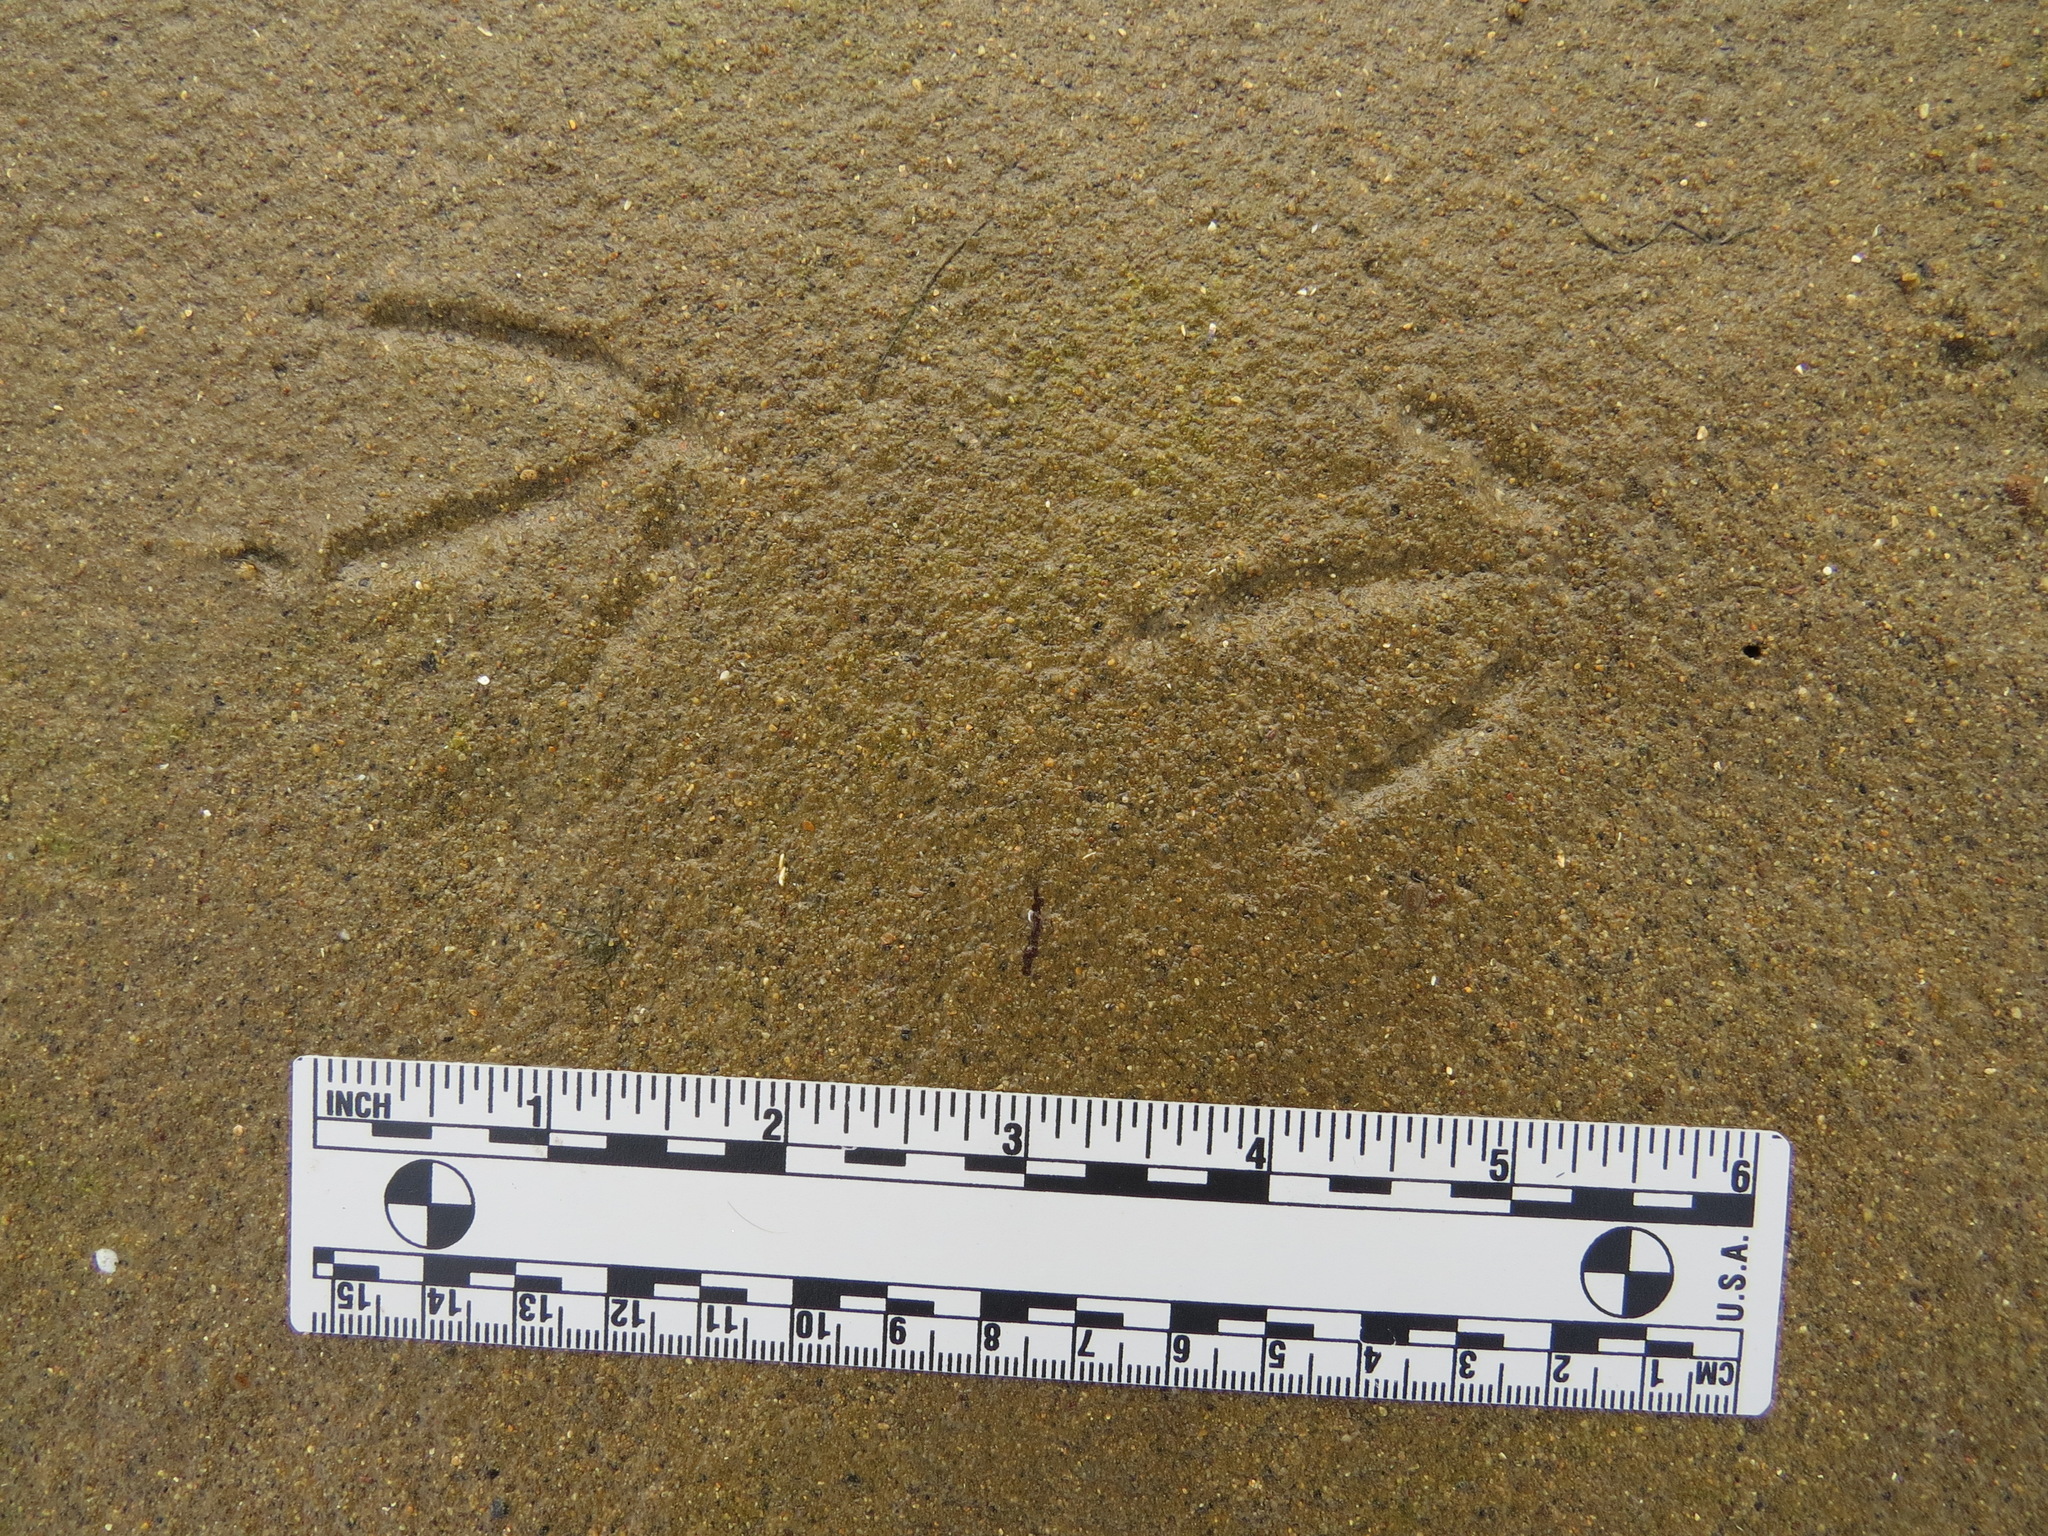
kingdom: Animalia
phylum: Chordata
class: Aves
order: Charadriiformes
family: Laridae
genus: Hydroprogne
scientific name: Hydroprogne caspia
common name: Caspian tern
